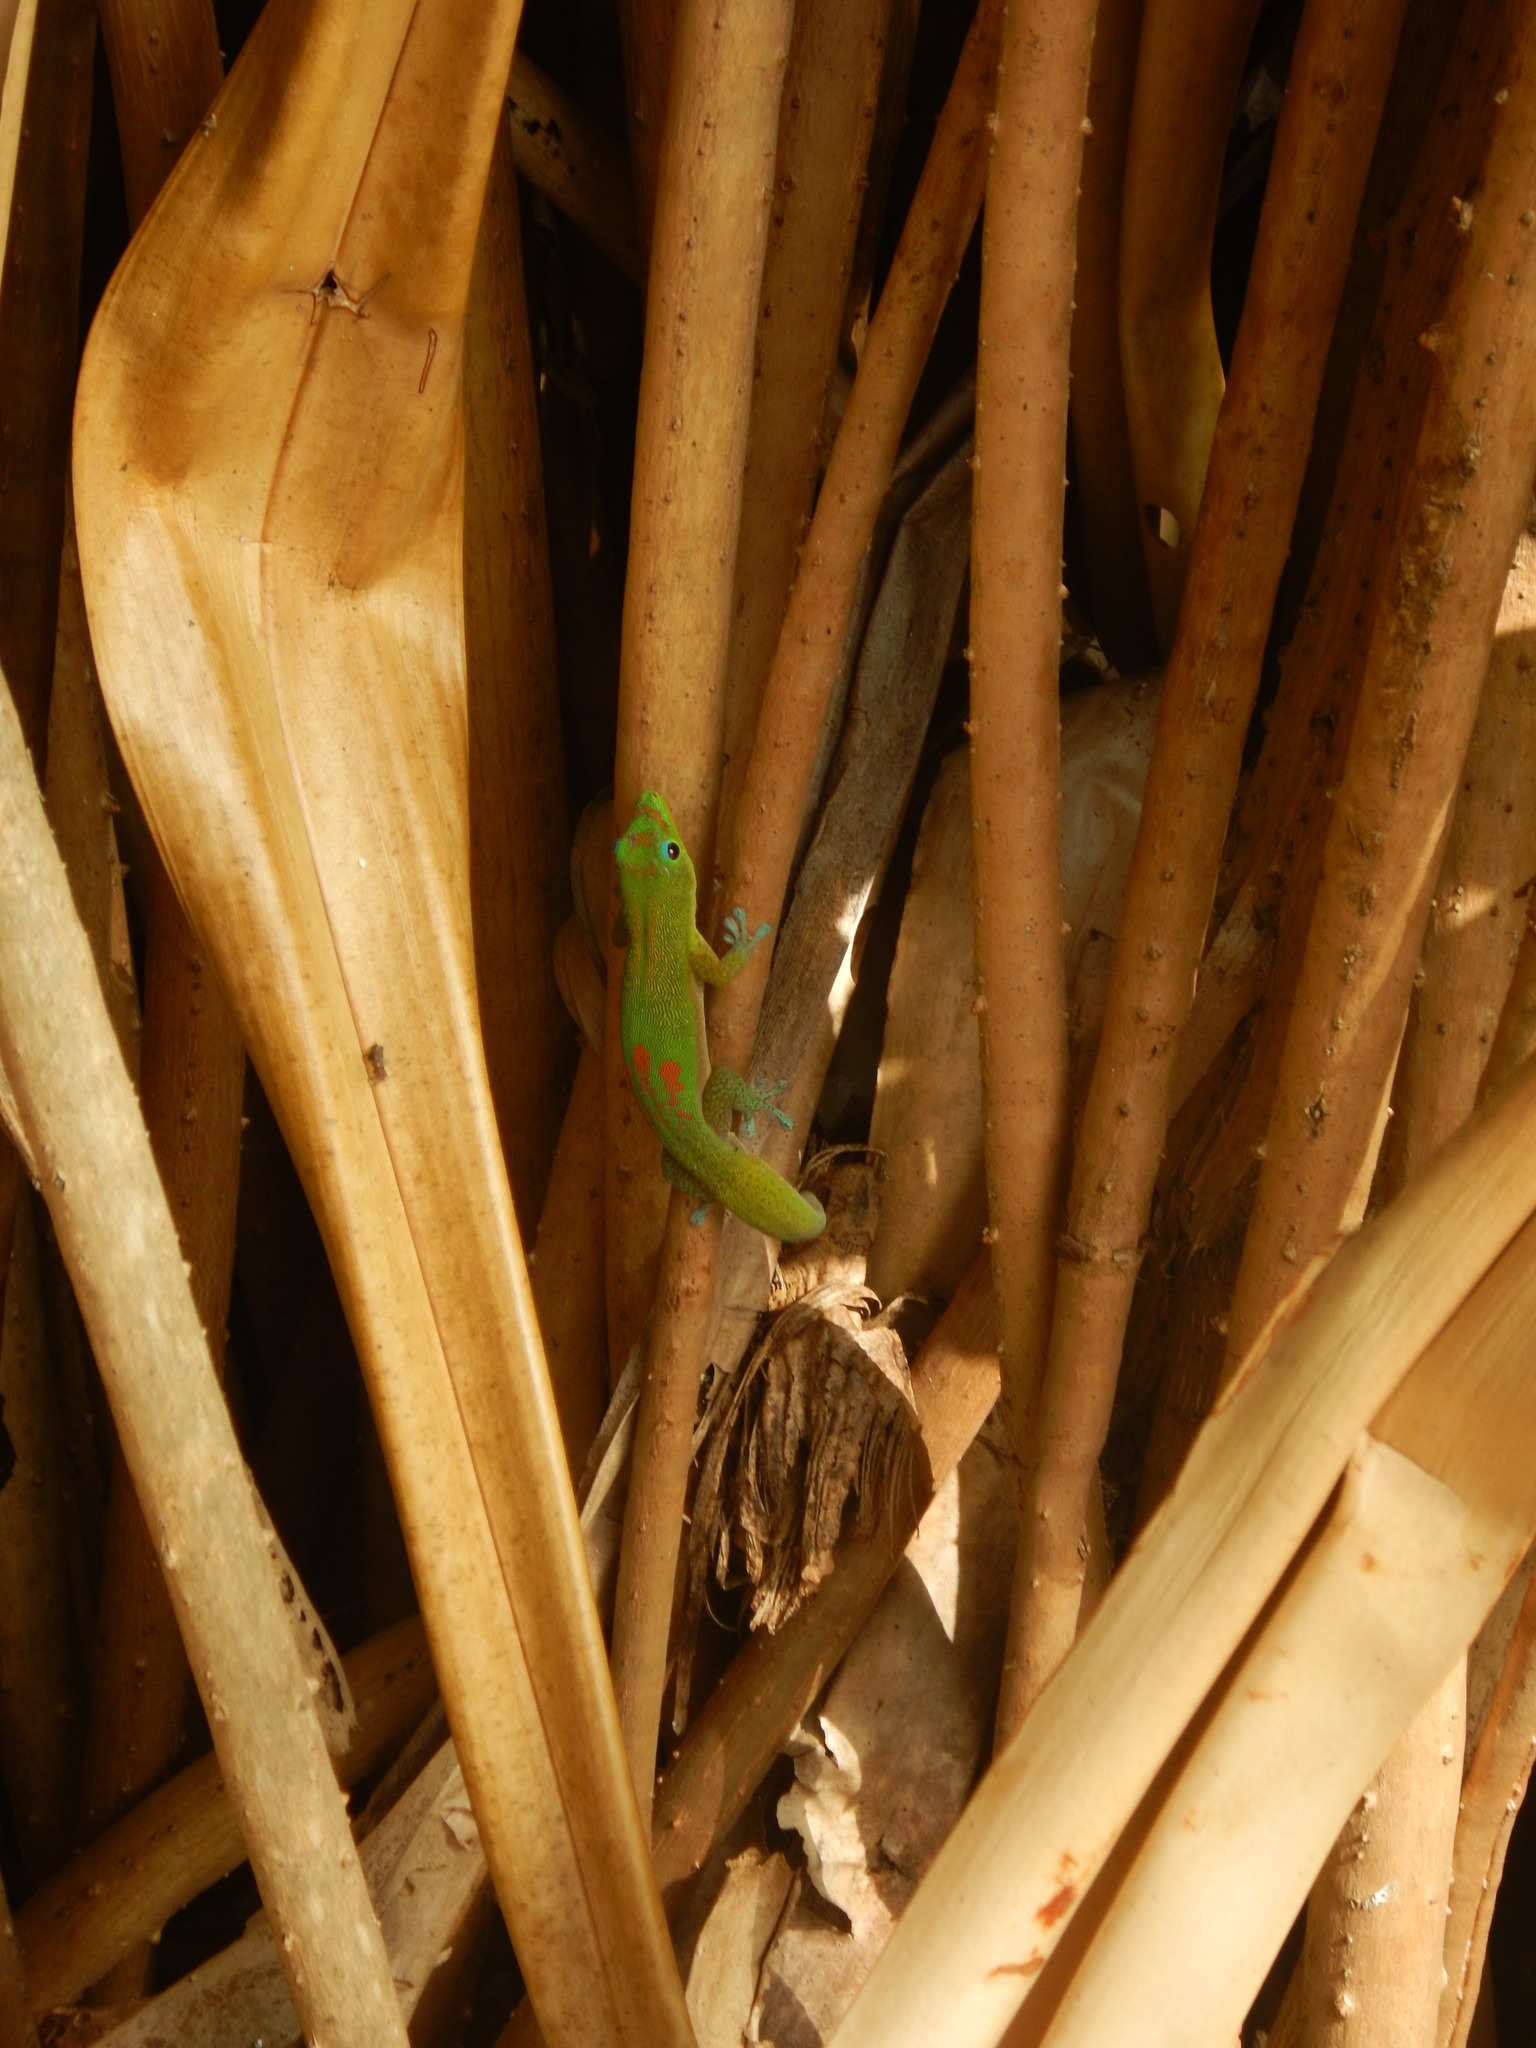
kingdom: Animalia
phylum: Chordata
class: Squamata
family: Gekkonidae
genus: Phelsuma
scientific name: Phelsuma laticauda
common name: Gold dust day gecko
